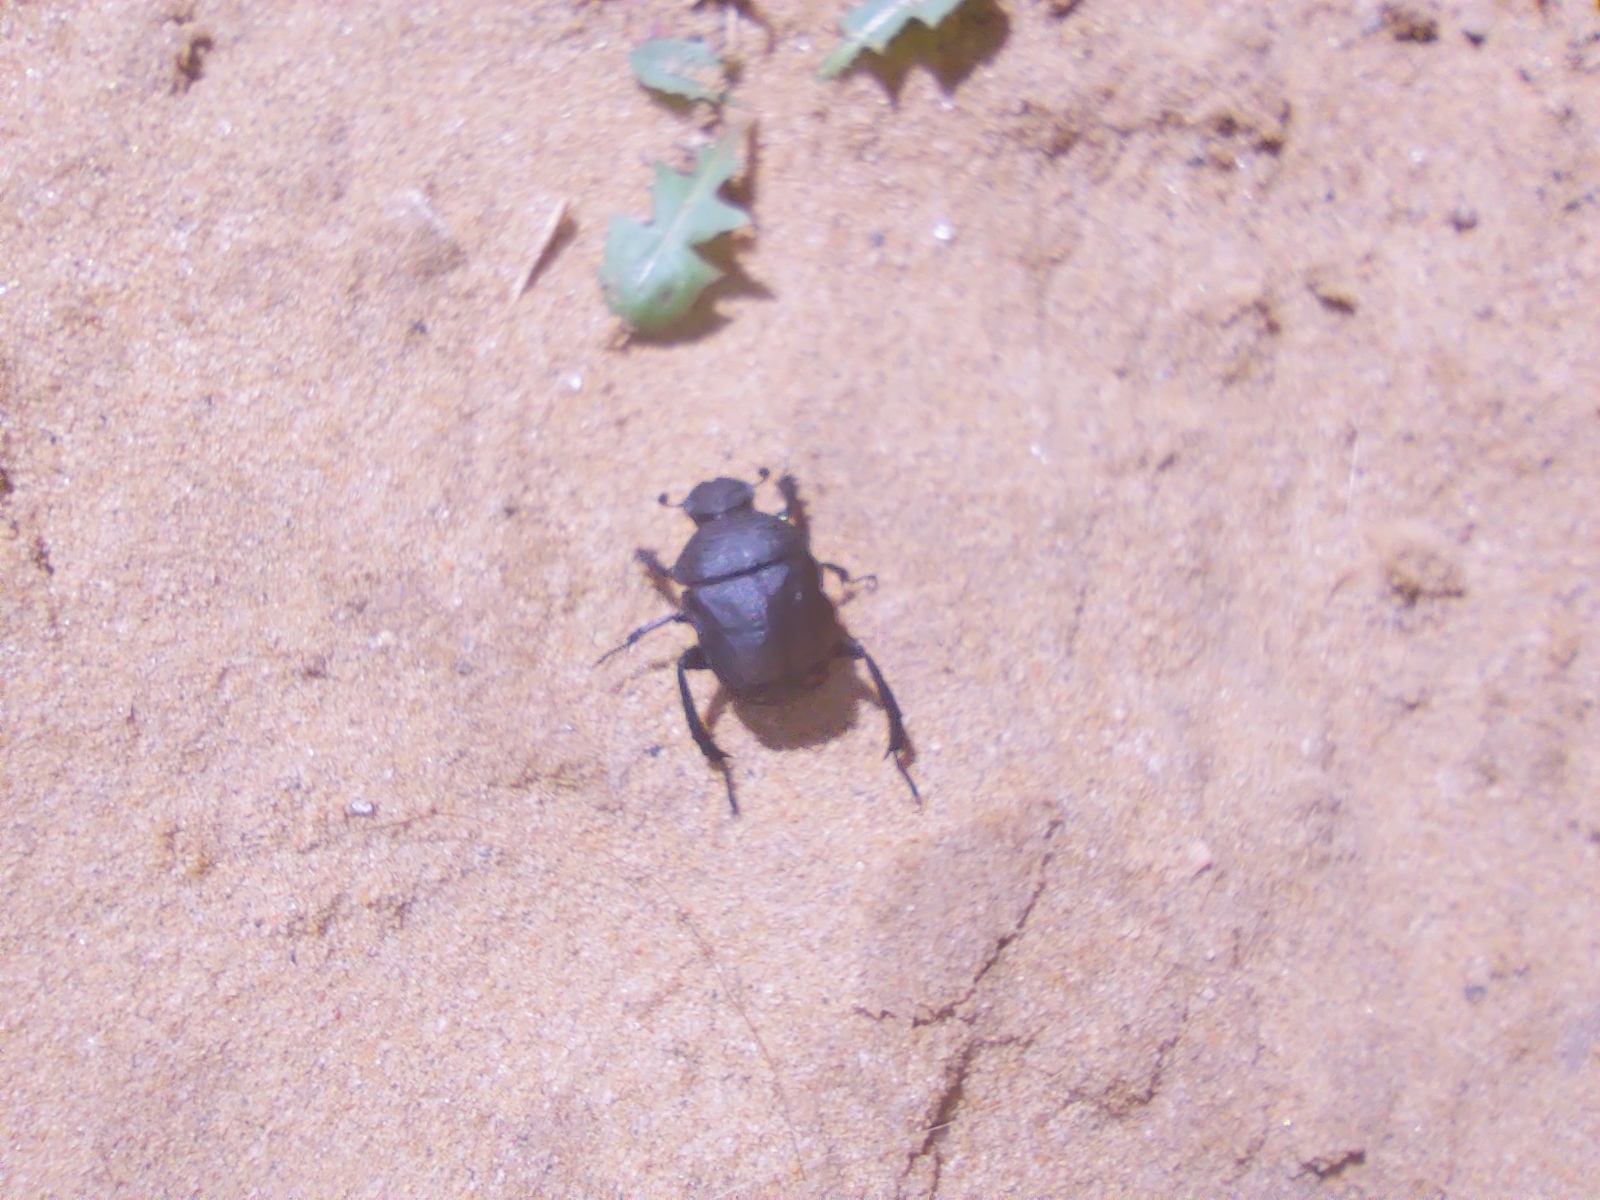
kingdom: Animalia
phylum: Arthropoda
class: Insecta
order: Coleoptera
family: Scarabaeidae
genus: Gymnopleurus
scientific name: Gymnopleurus mopsus
